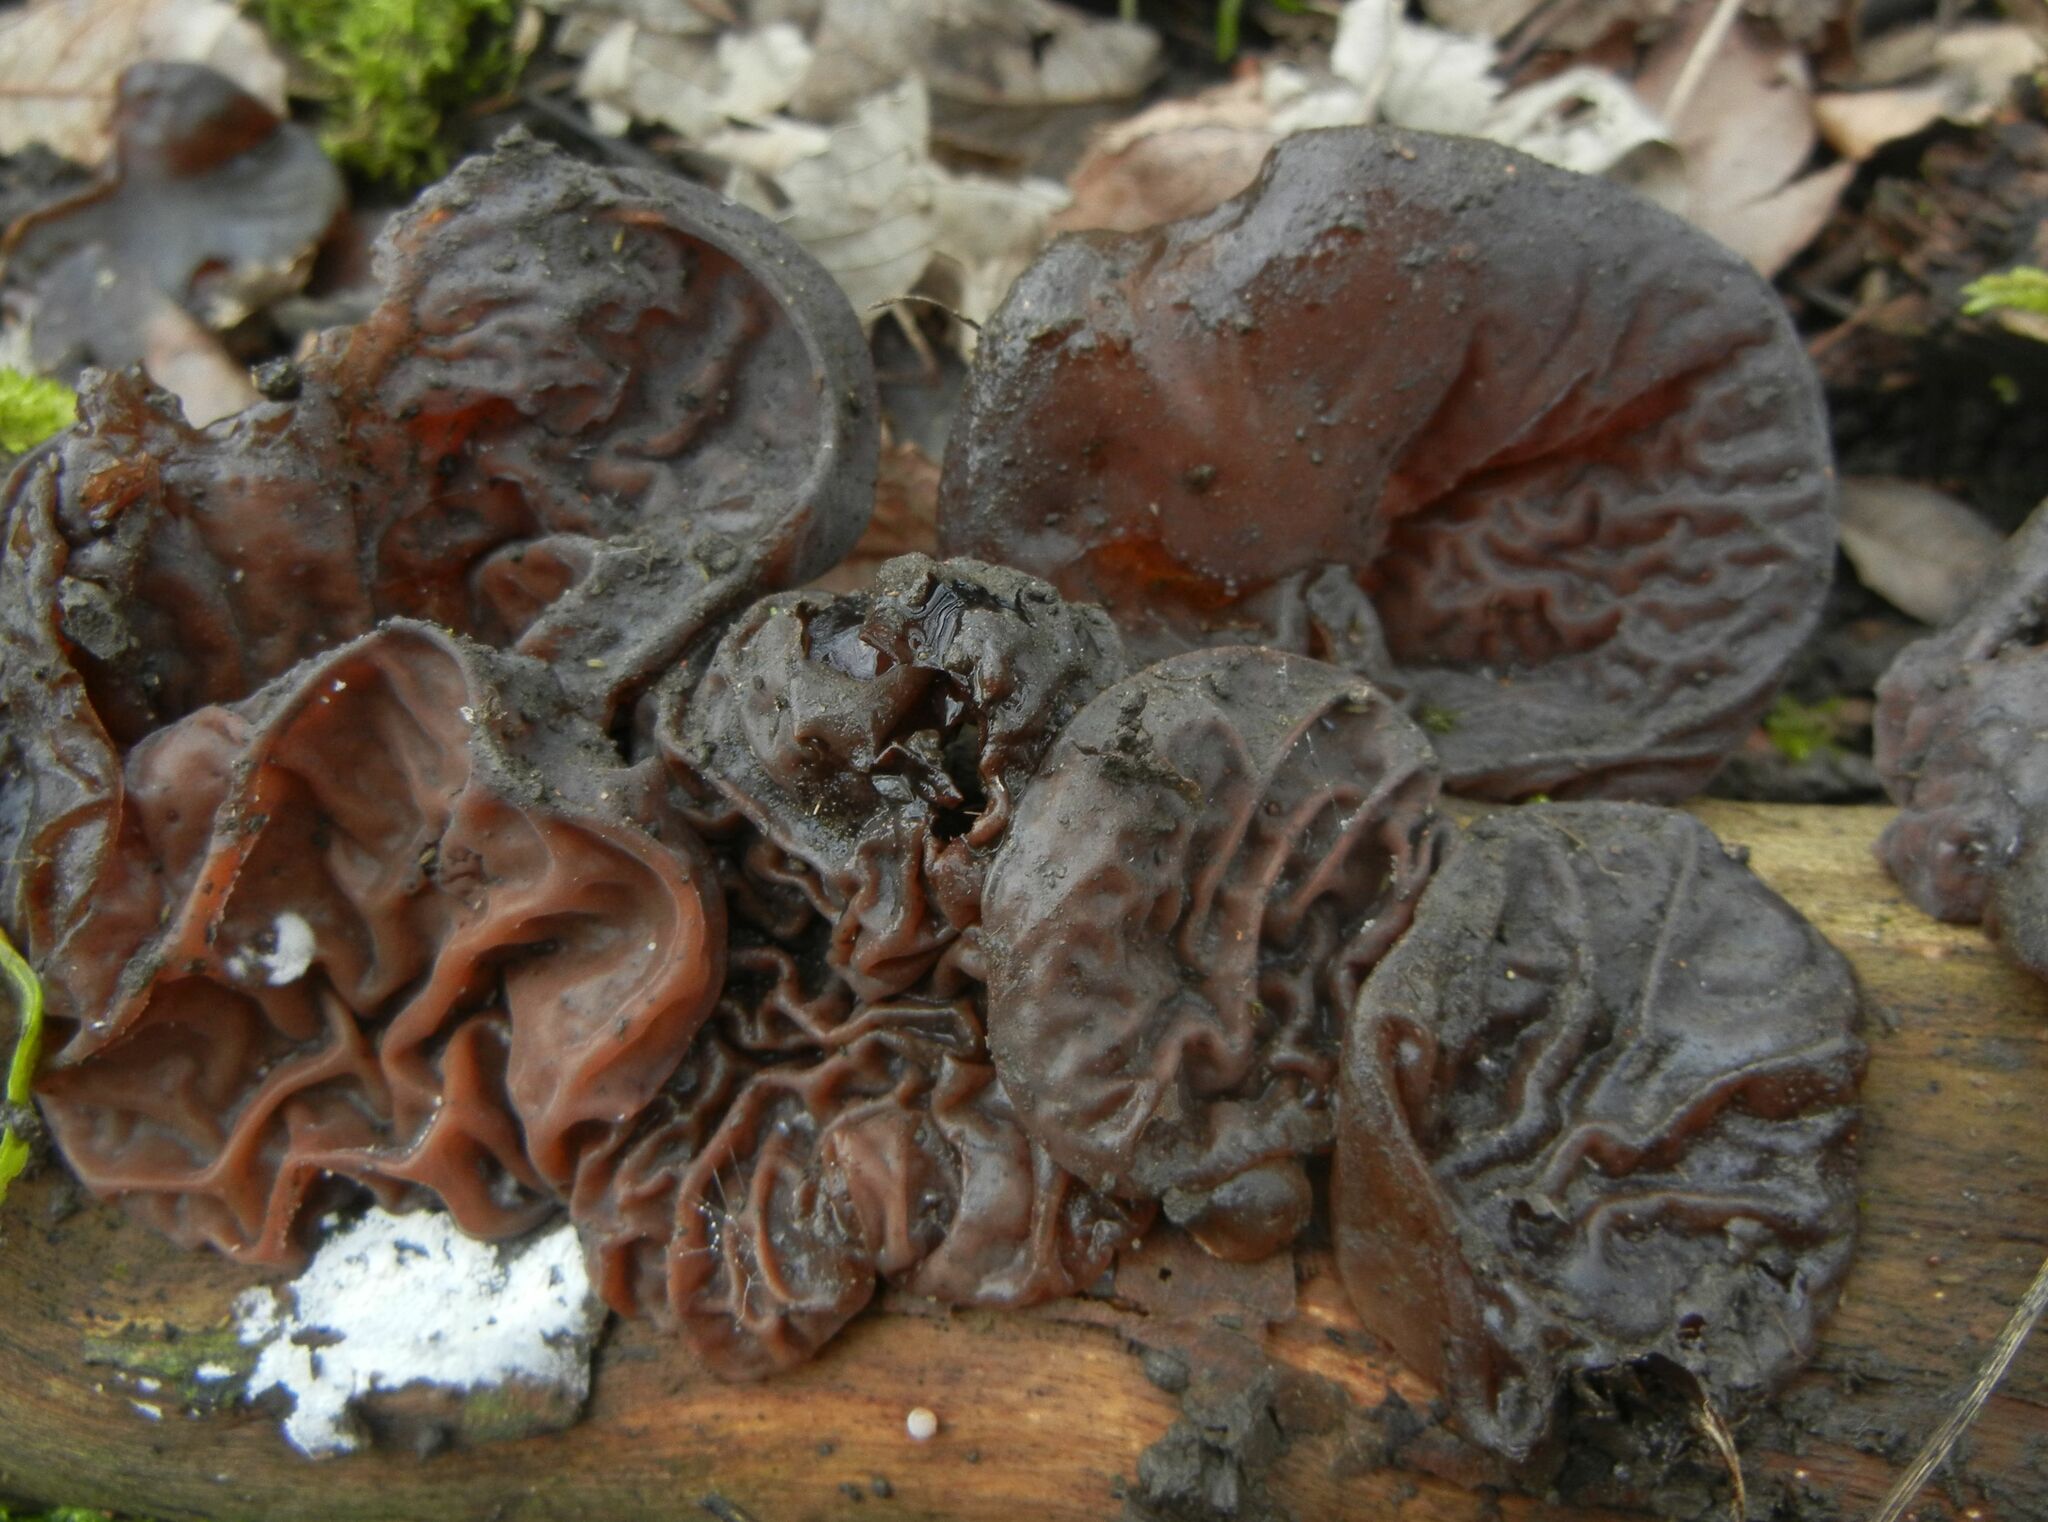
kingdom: Fungi
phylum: Basidiomycota
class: Agaricomycetes
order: Auriculariales
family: Auriculariaceae
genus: Auricularia
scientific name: Auricularia auricula-judae
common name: Jelly ear
